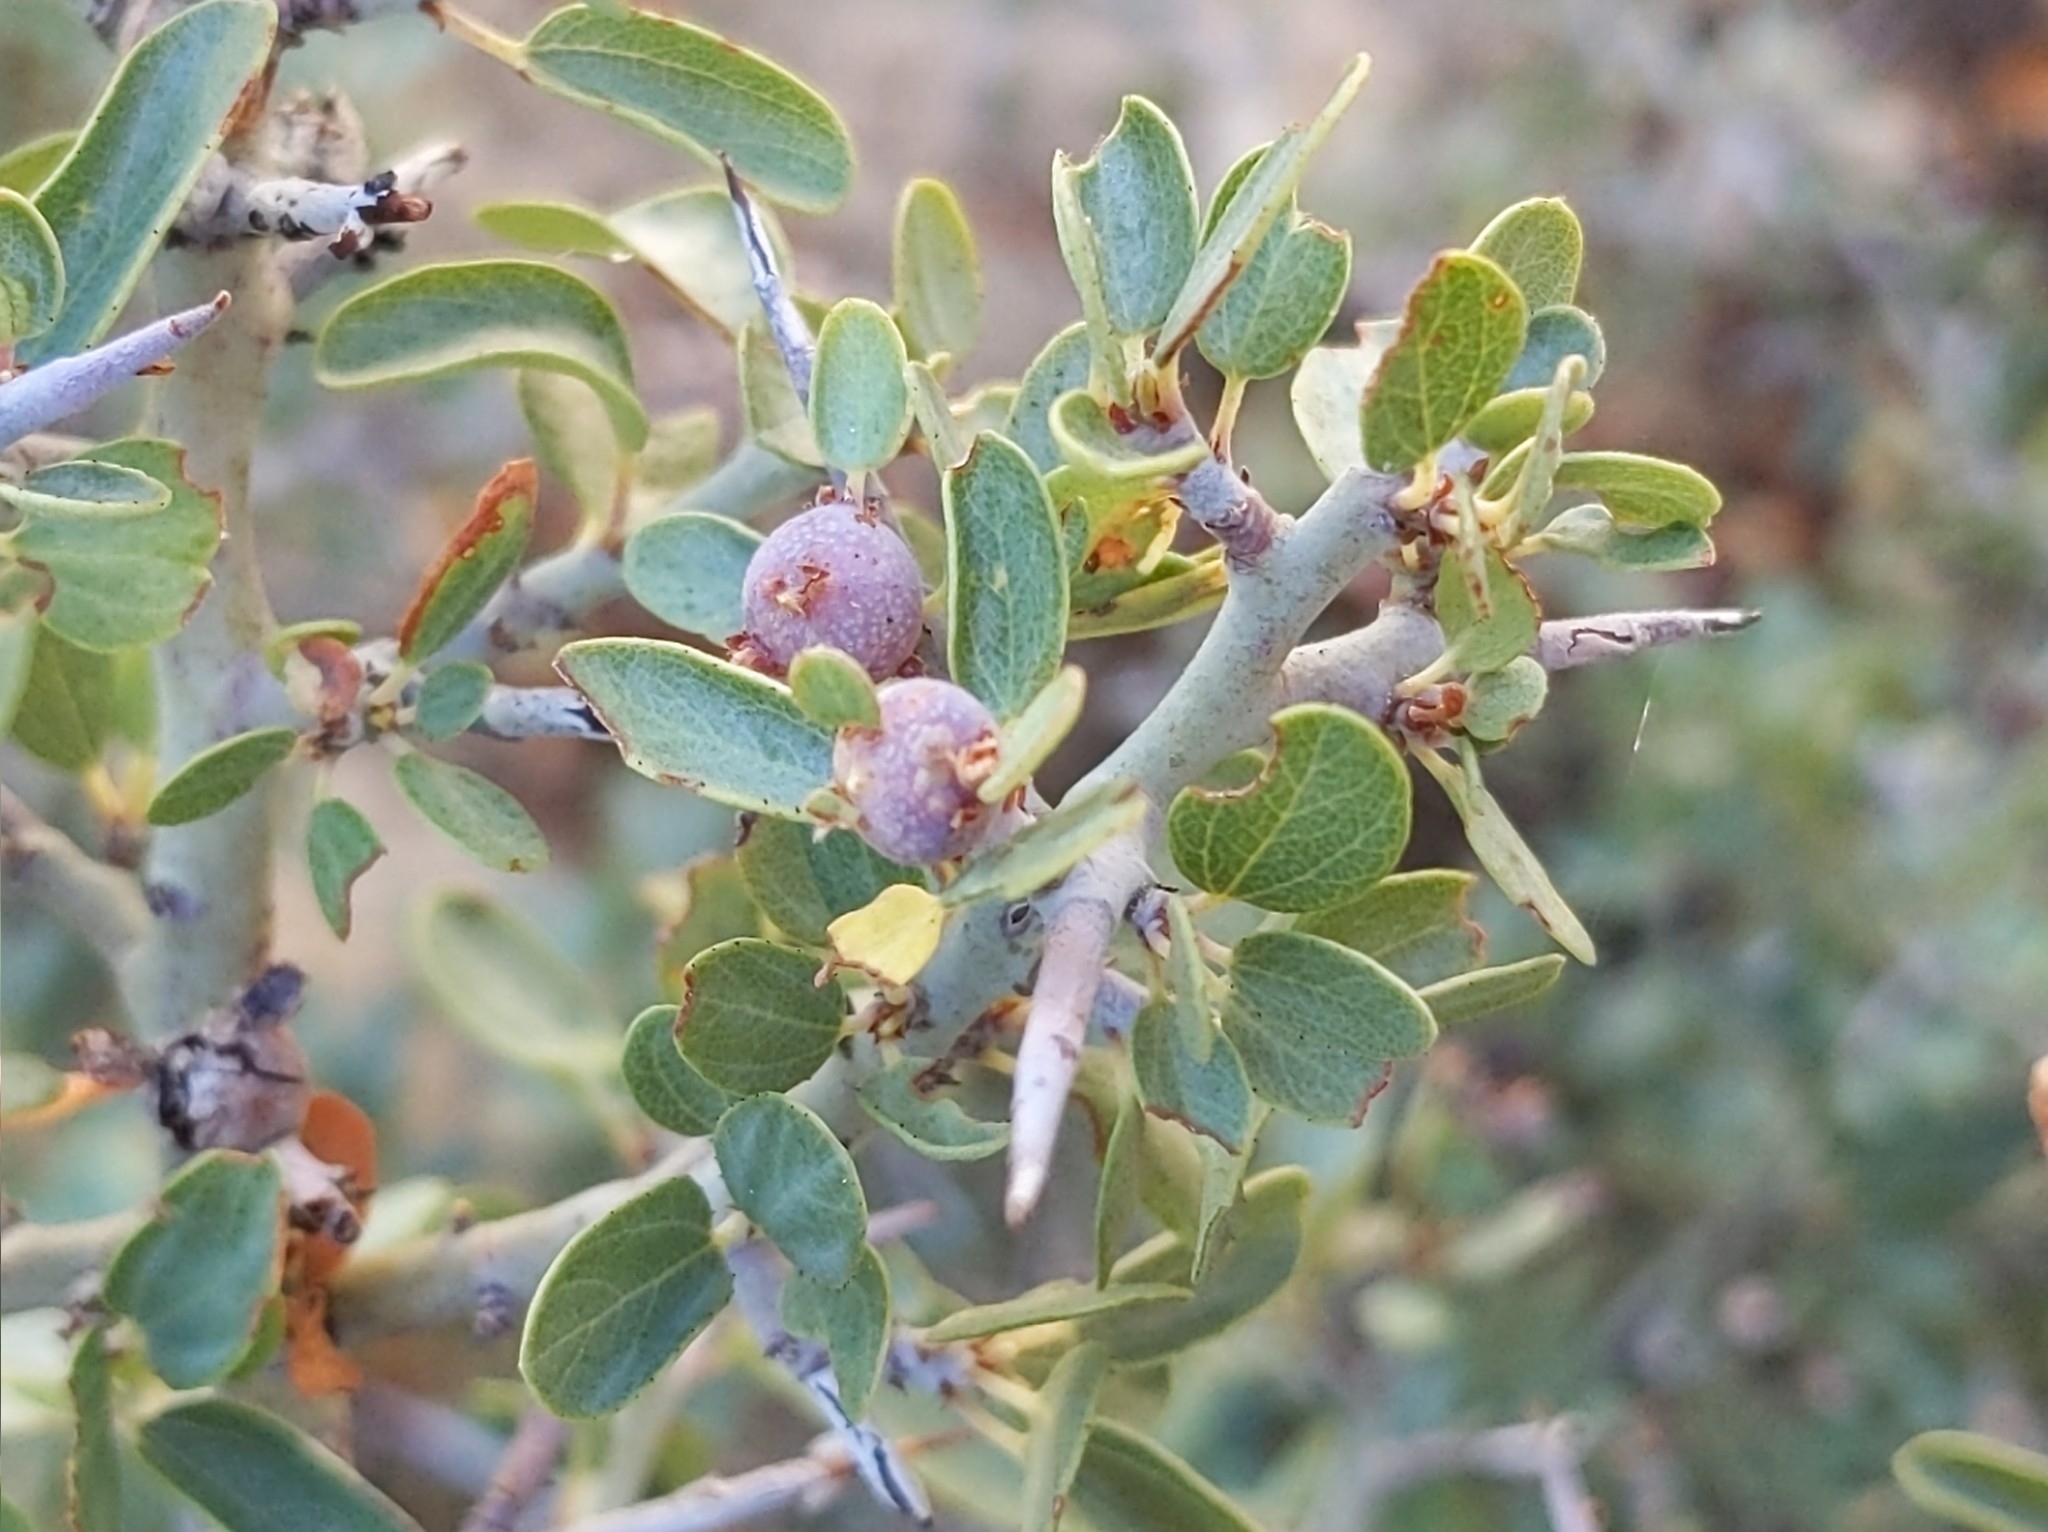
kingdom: Plantae
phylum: Tracheophyta
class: Magnoliopsida
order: Rosales
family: Rhamnaceae
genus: Ceanothus
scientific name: Ceanothus cordulatus
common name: Mountain whitethorn
